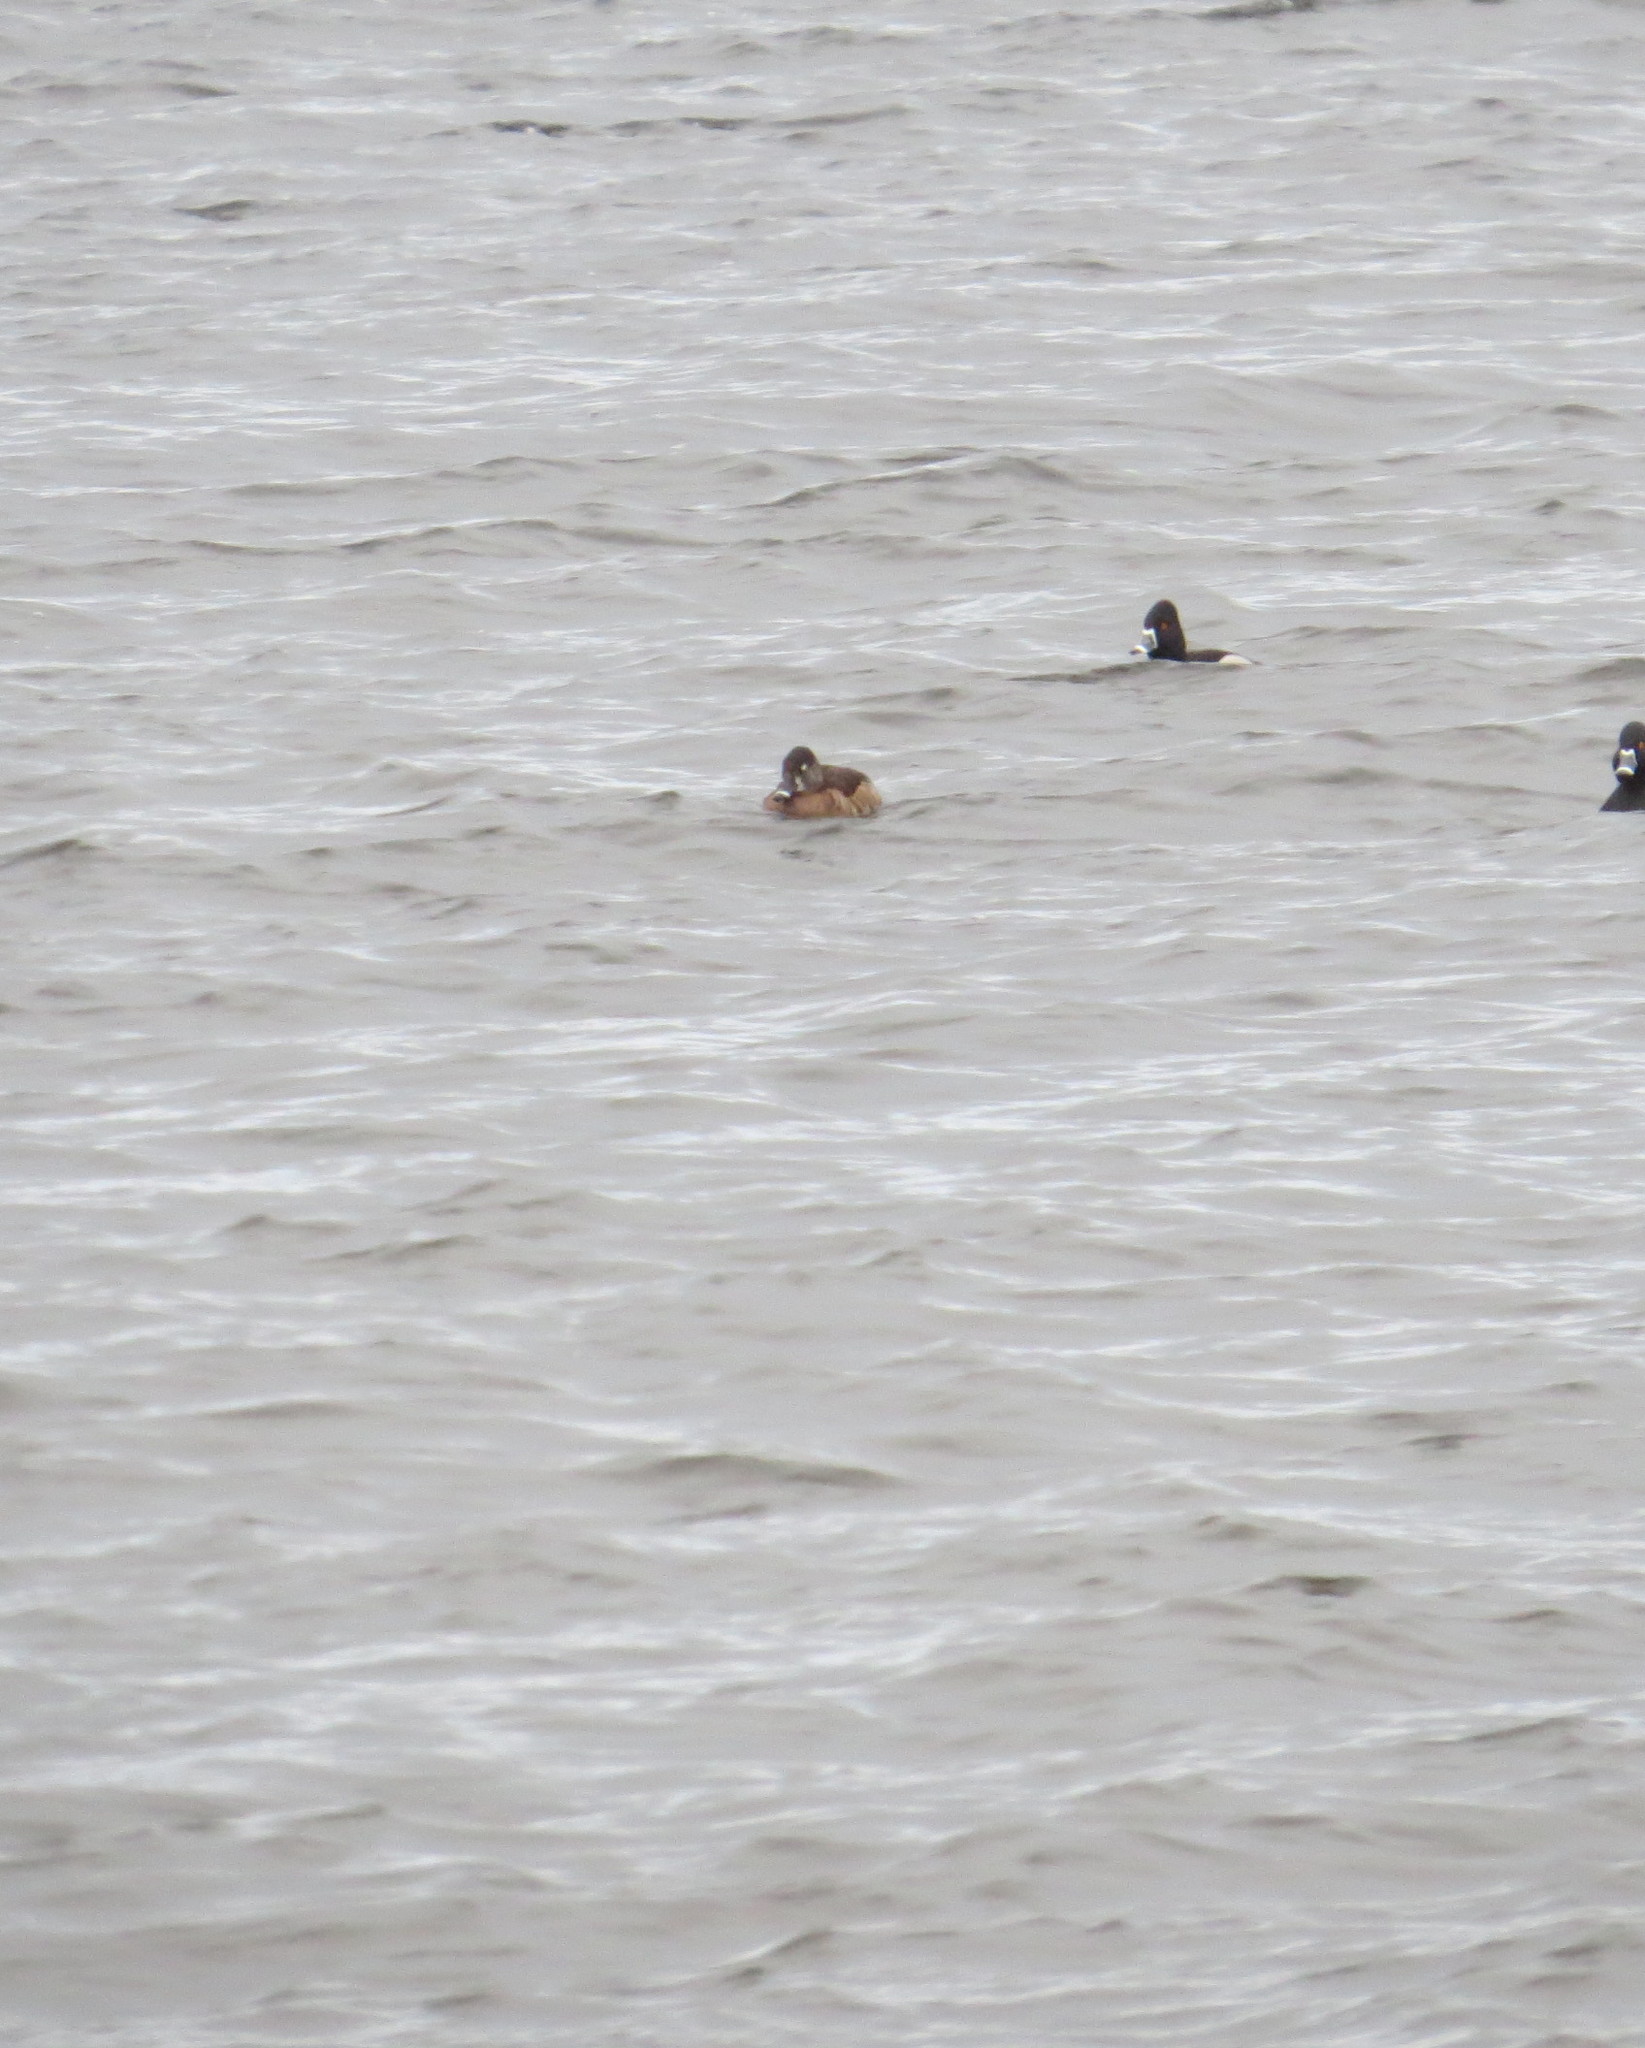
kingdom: Animalia
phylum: Chordata
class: Aves
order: Anseriformes
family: Anatidae
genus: Aythya
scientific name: Aythya collaris
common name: Ring-necked duck
